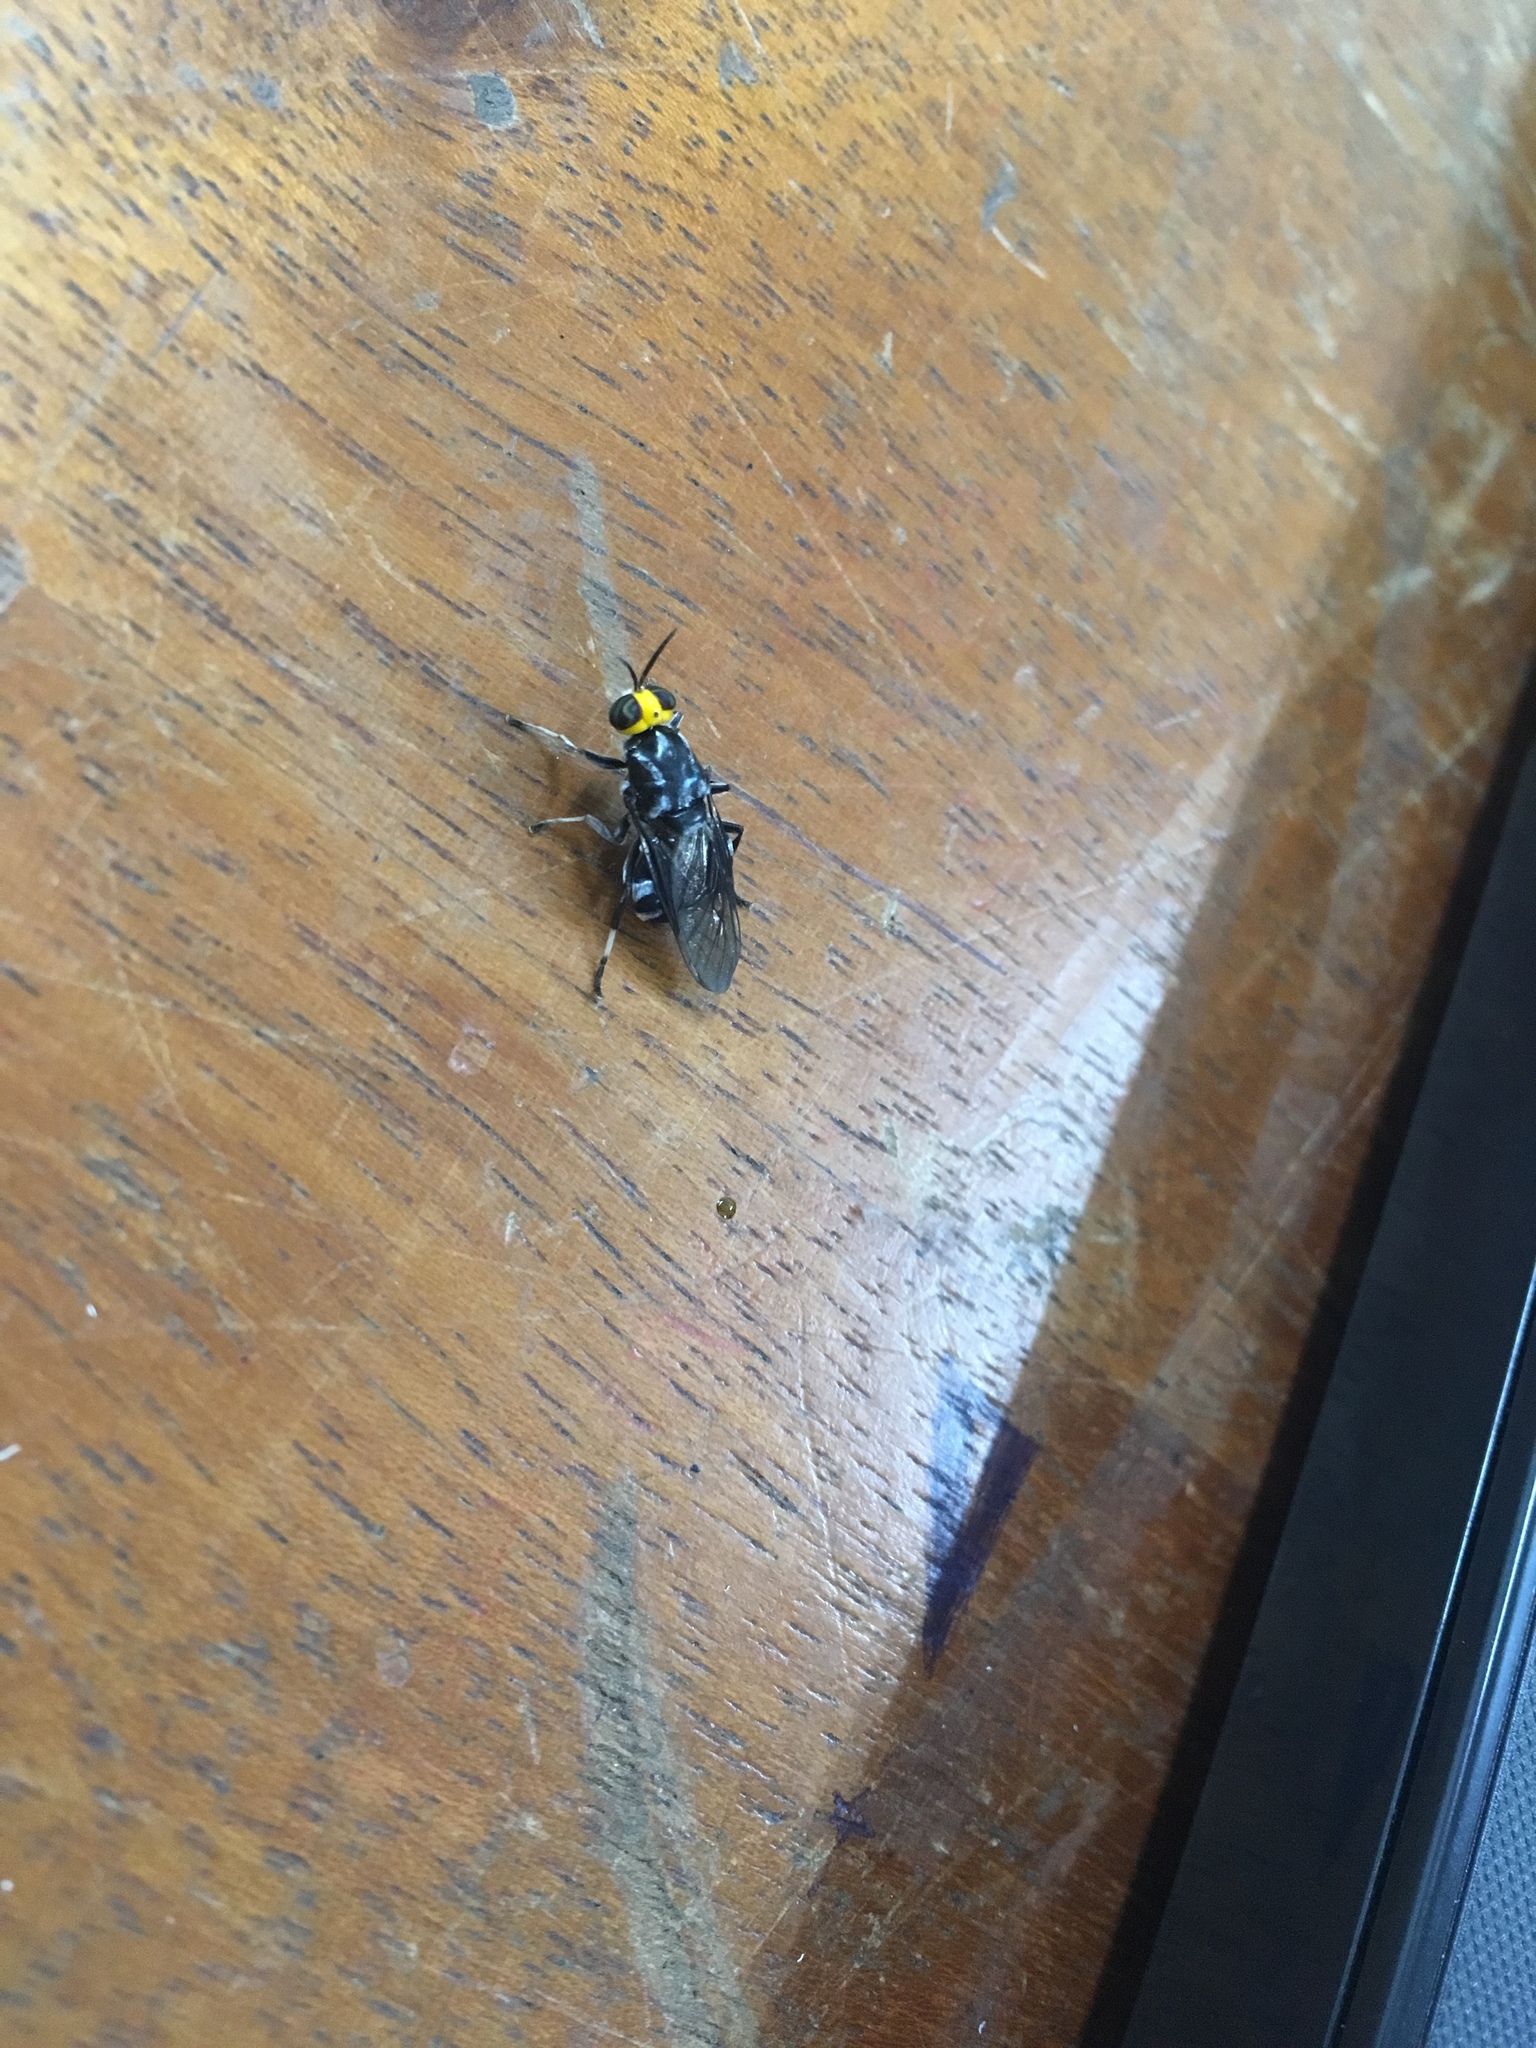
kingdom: Animalia
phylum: Arthropoda
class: Insecta
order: Diptera
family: Stratiomyidae
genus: Cyphomyia
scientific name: Cyphomyia wiedemanni
